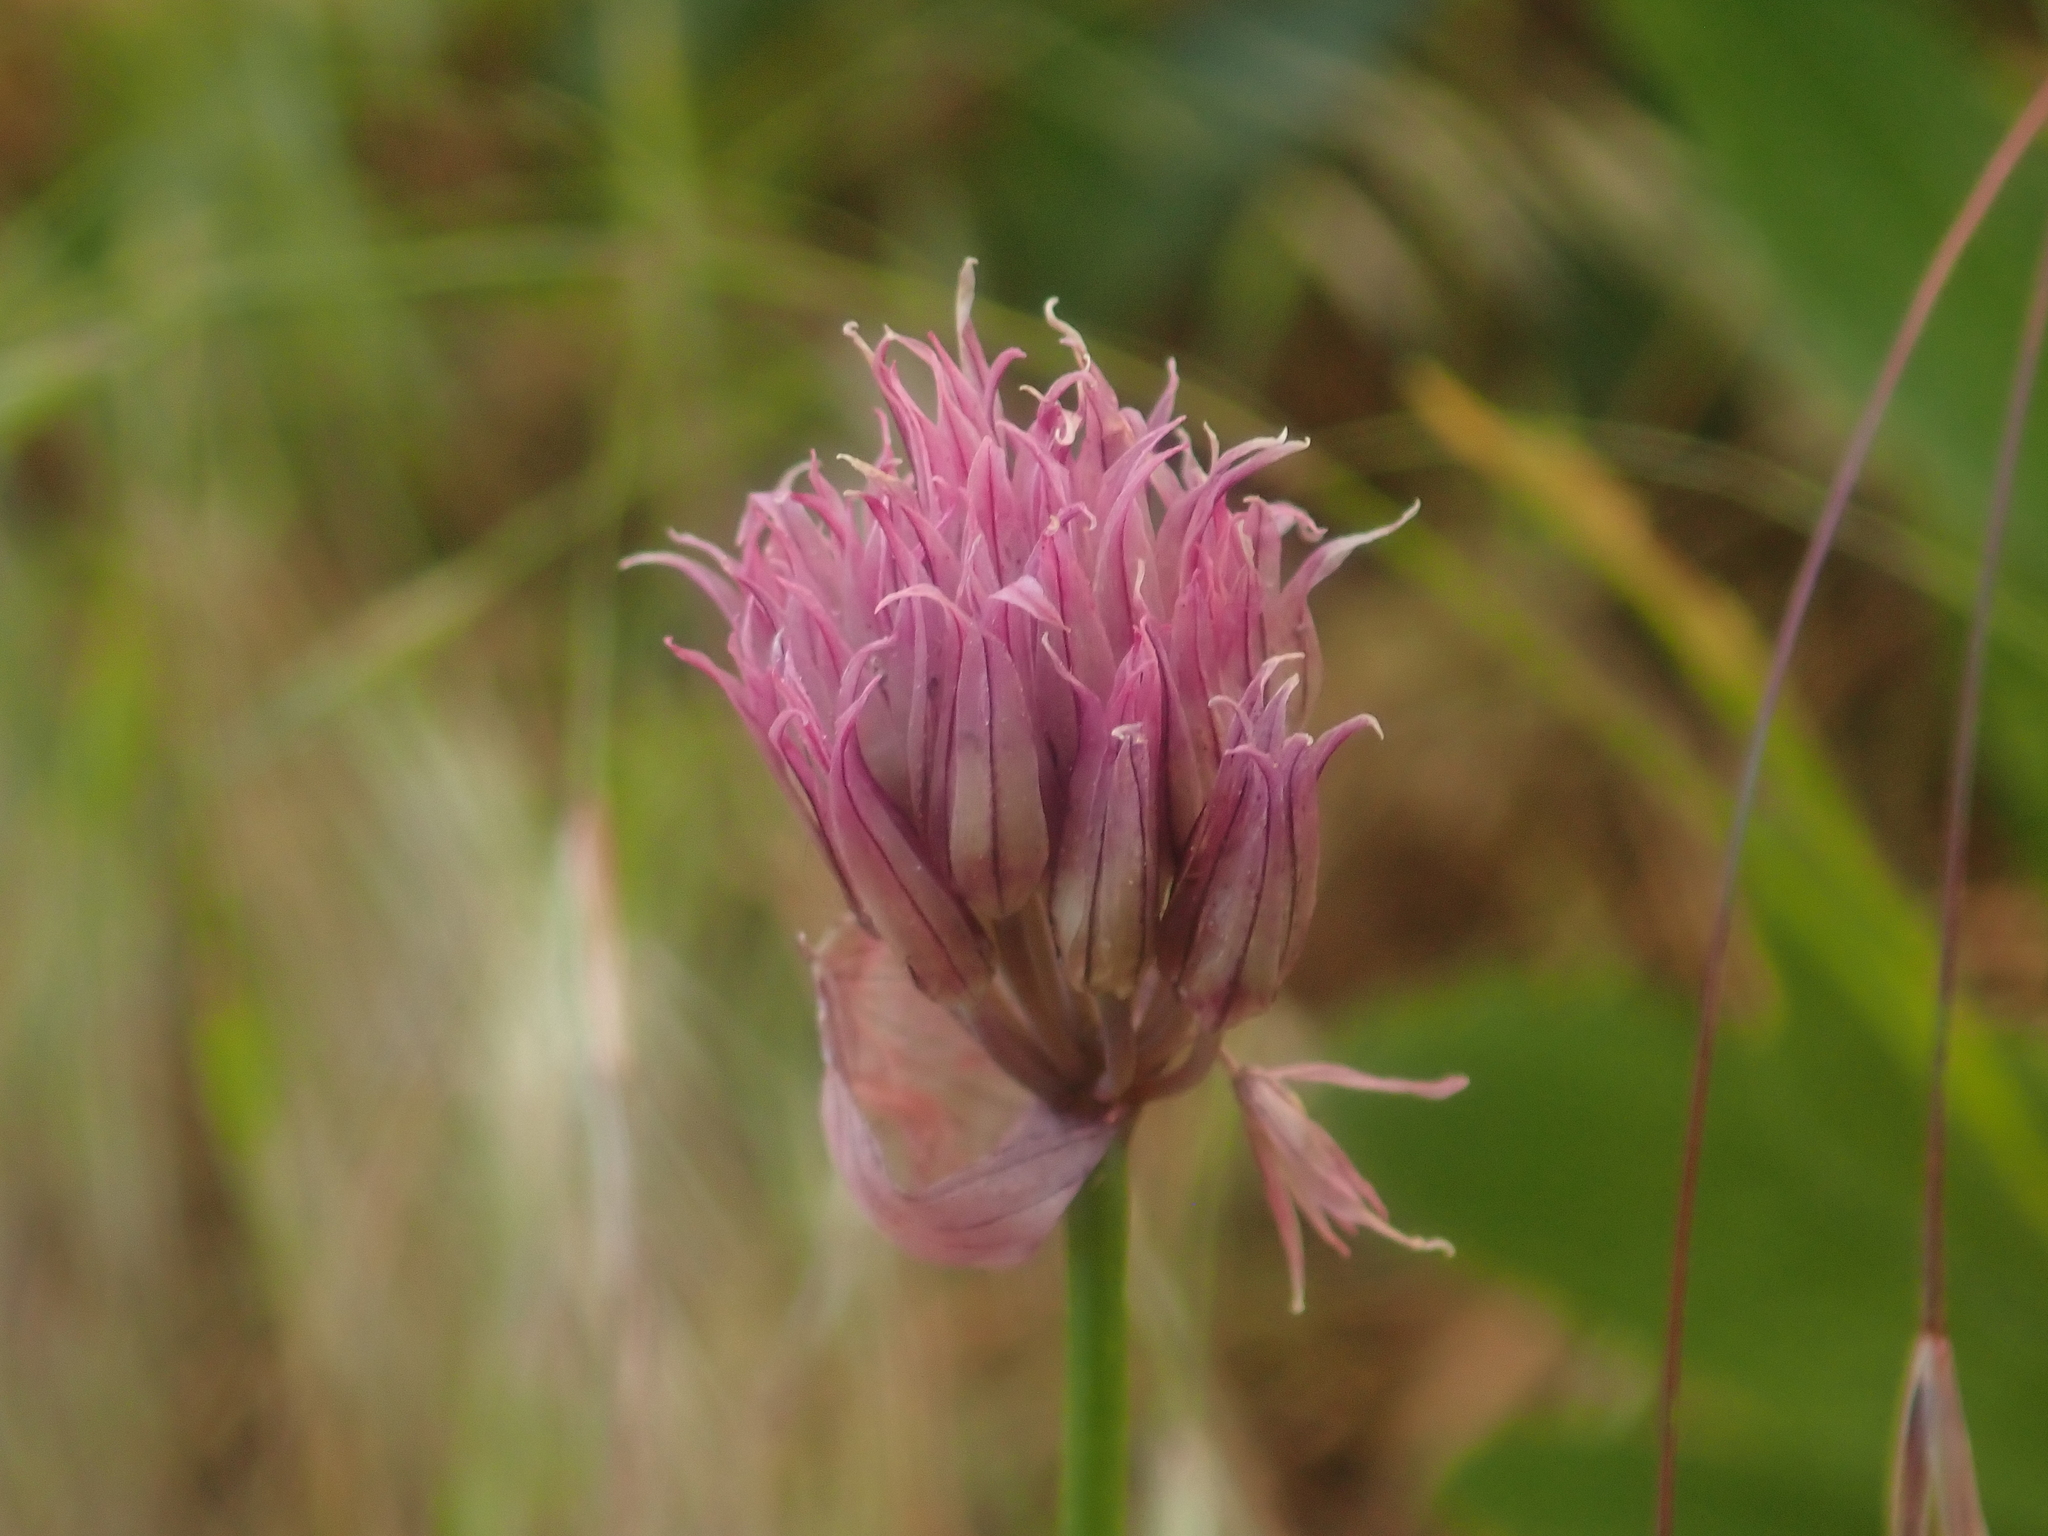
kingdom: Plantae
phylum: Tracheophyta
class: Liliopsida
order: Asparagales
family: Amaryllidaceae
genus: Allium
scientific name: Allium schoenoprasum
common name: Chives
